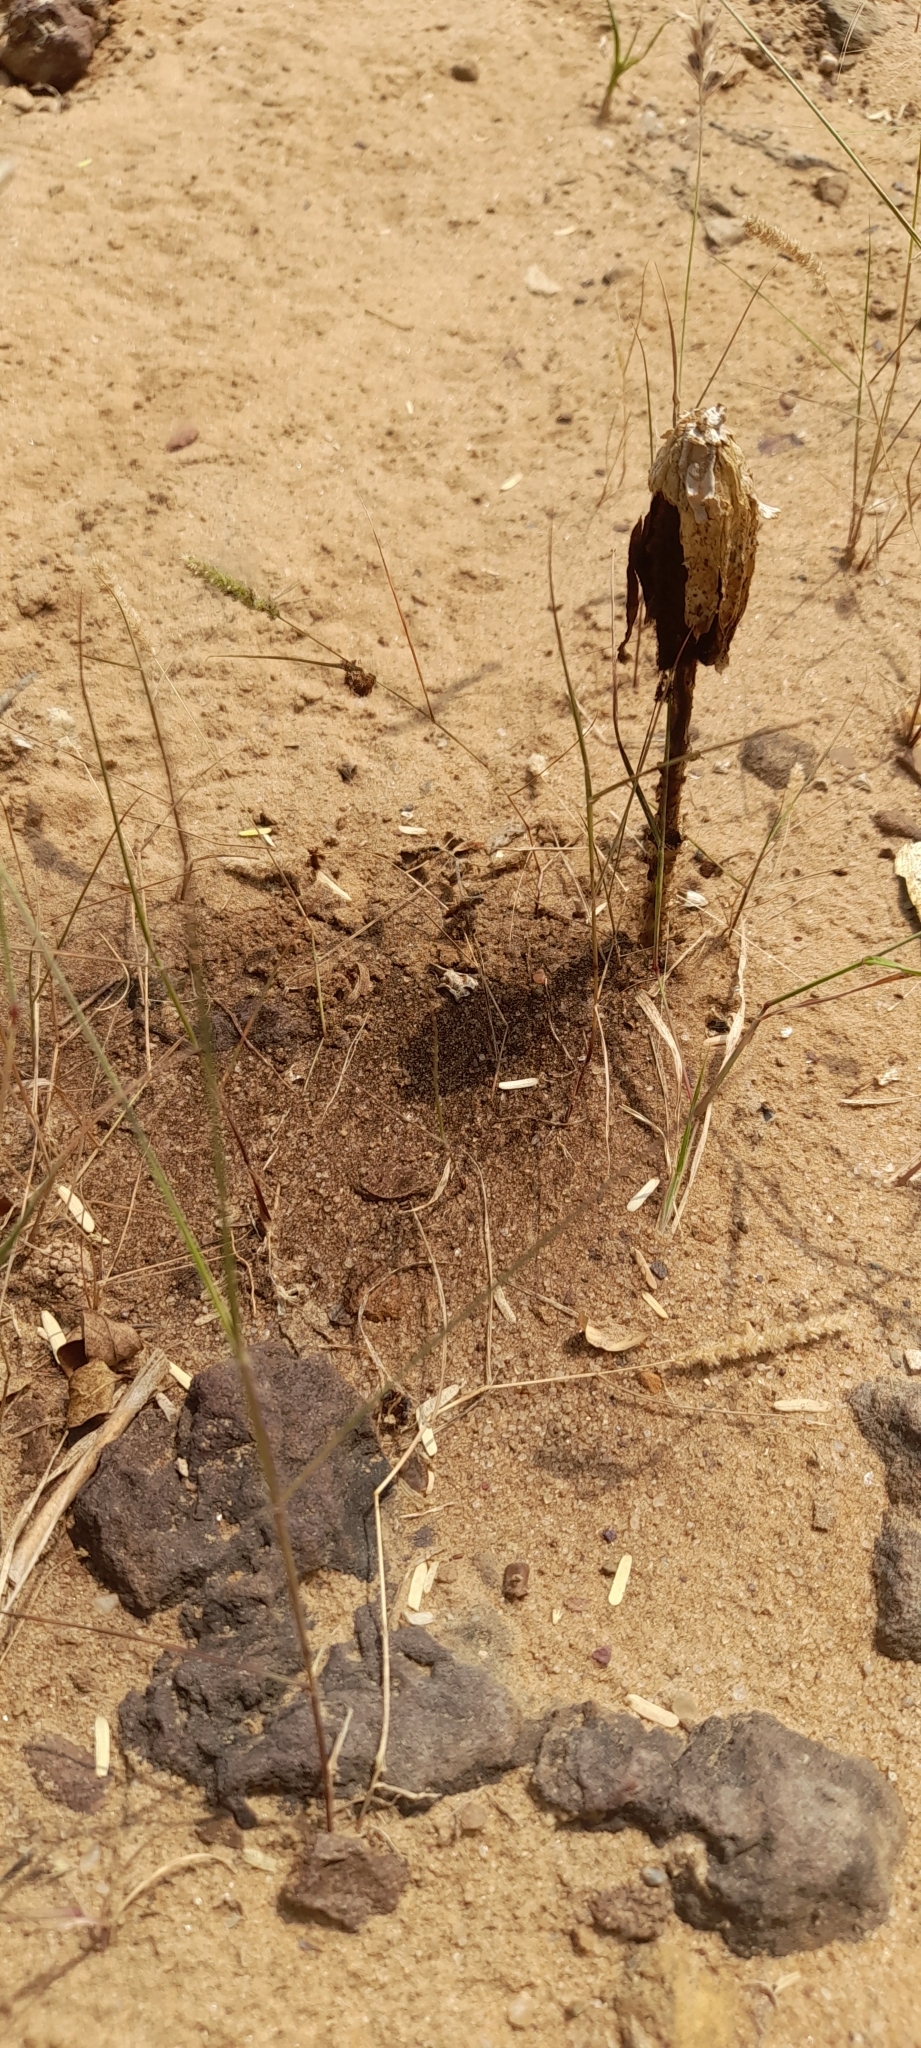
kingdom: Fungi
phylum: Basidiomycota
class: Agaricomycetes
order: Agaricales
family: Agaricaceae
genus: Podaxis
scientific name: Podaxis pistillaris
